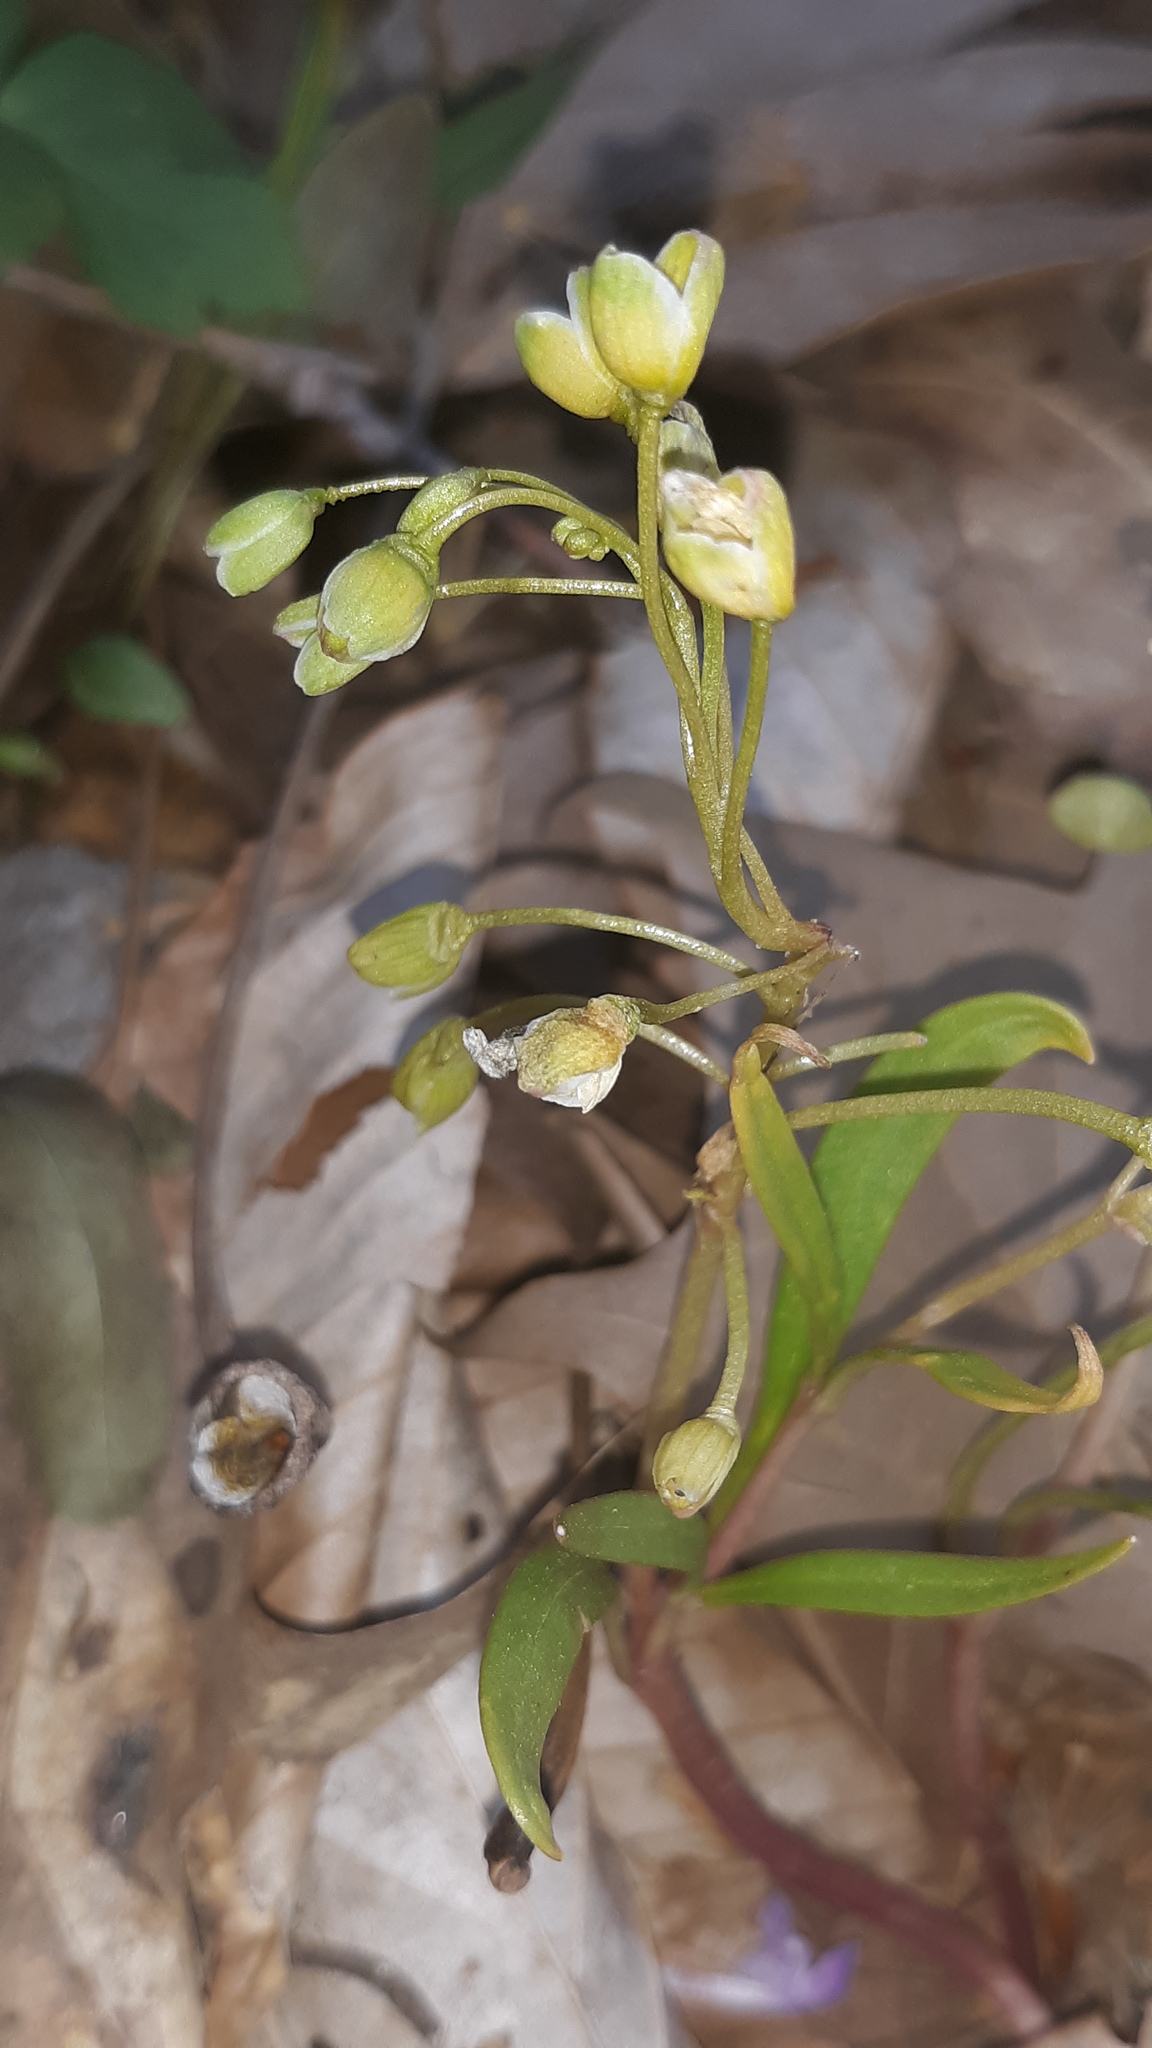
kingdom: Plantae
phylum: Tracheophyta
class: Magnoliopsida
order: Caryophyllales
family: Montiaceae
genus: Claytonia
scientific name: Claytonia virginica
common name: Virginia springbeauty
